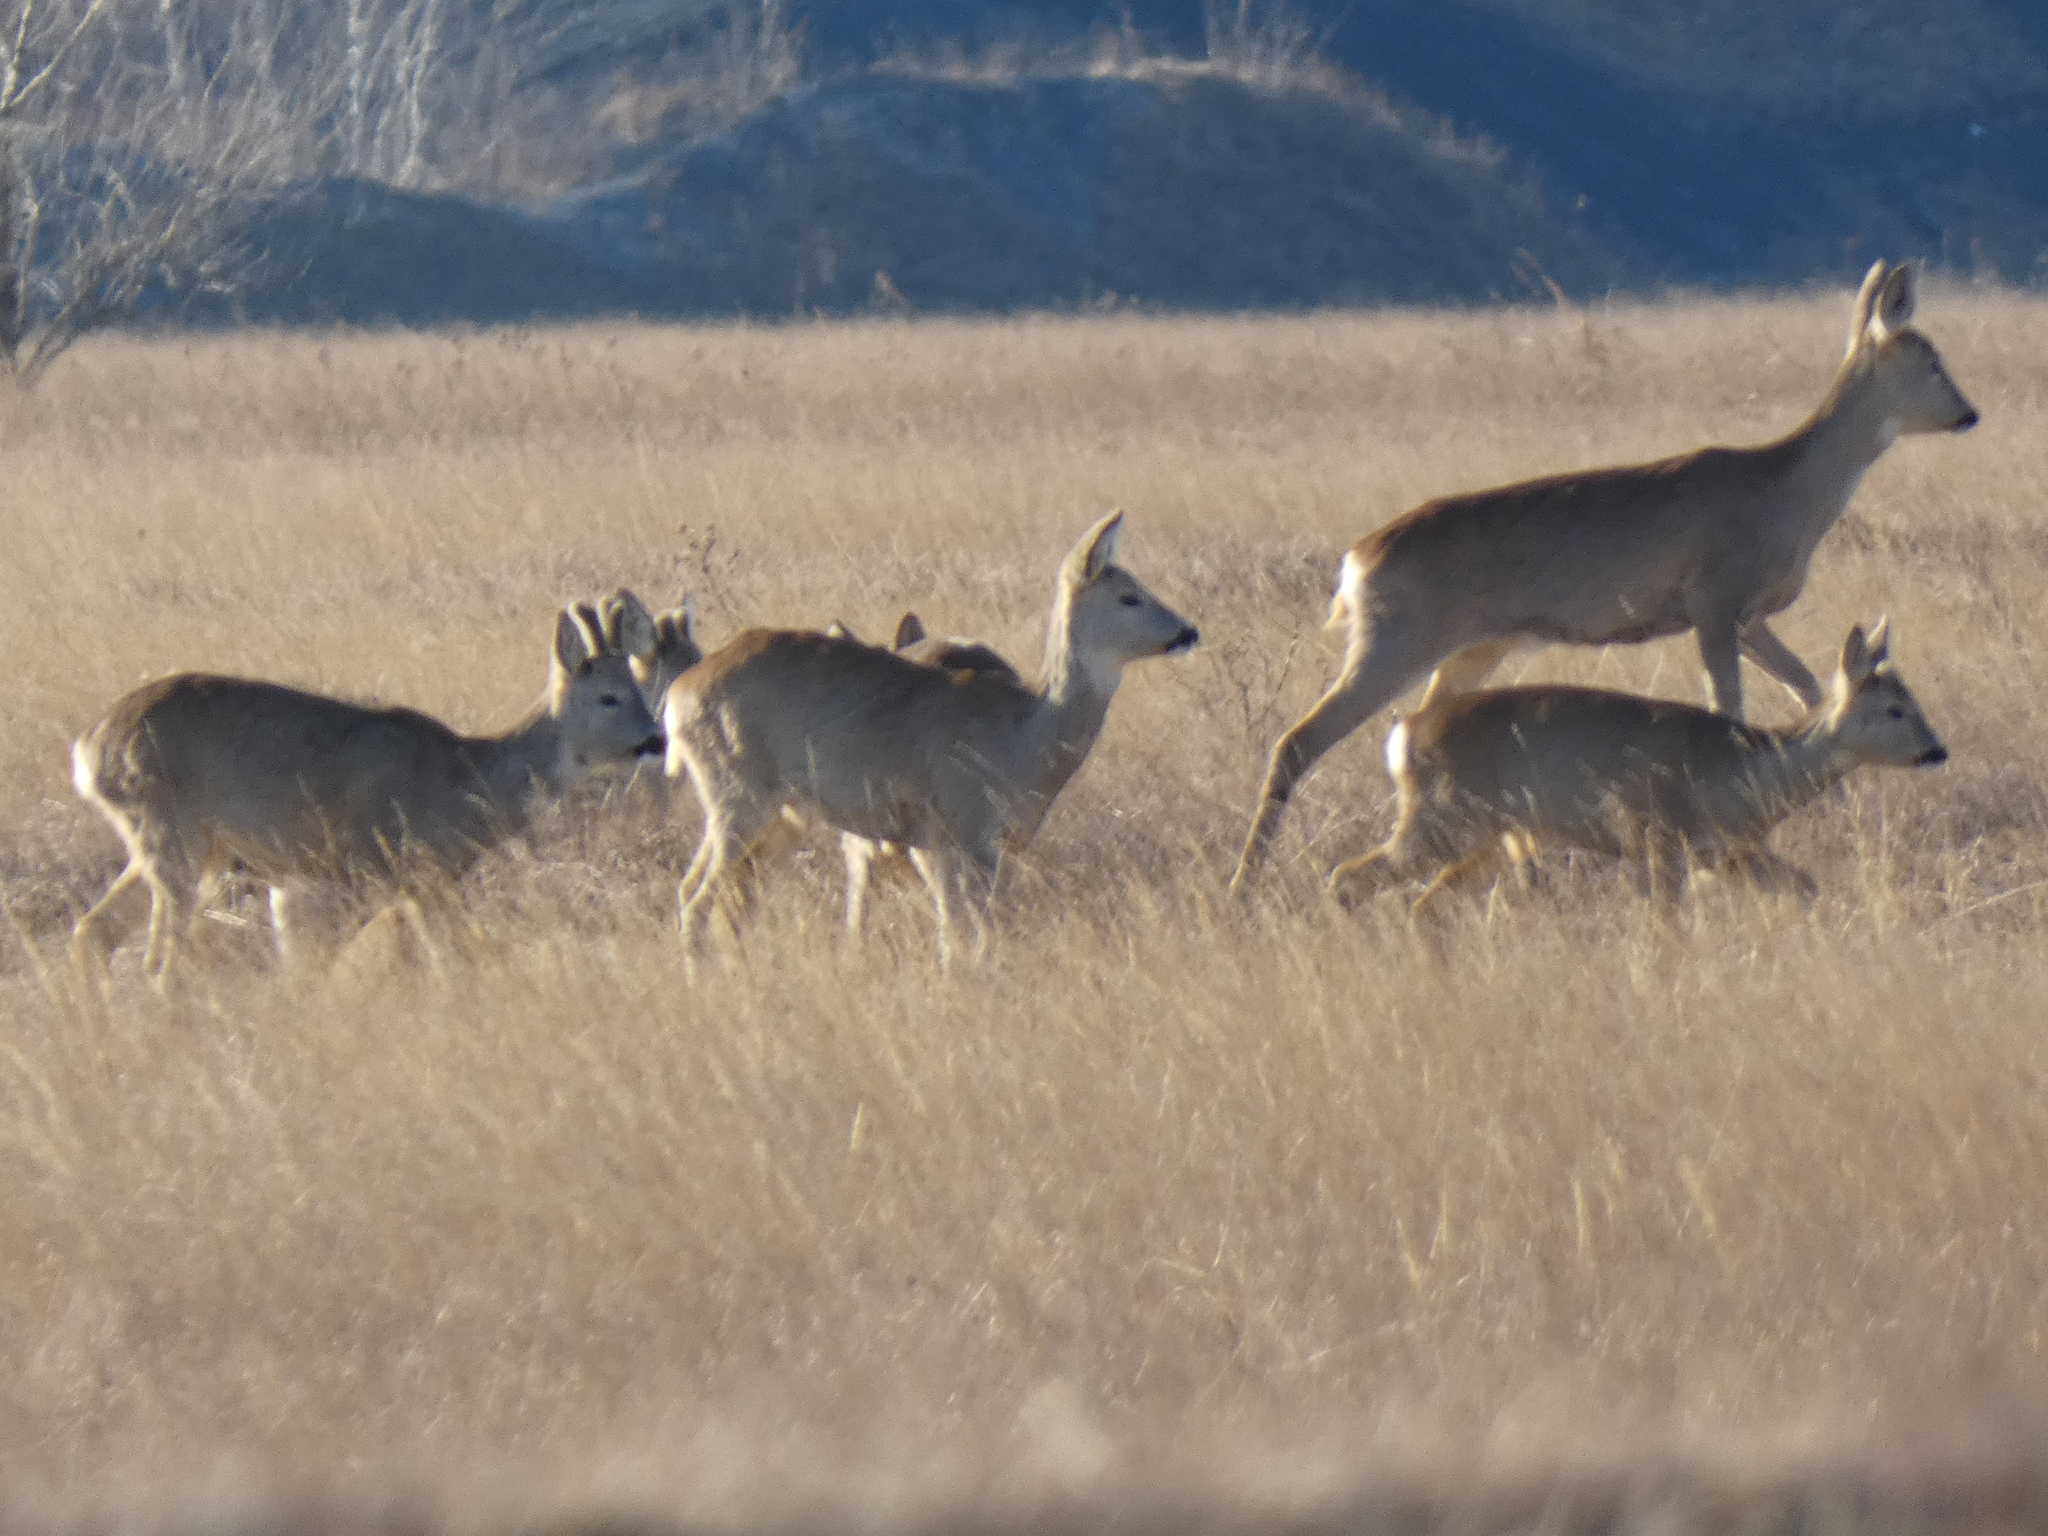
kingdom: Animalia
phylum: Chordata
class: Mammalia
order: Artiodactyla
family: Cervidae
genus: Capreolus
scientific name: Capreolus capreolus
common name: Western roe deer
